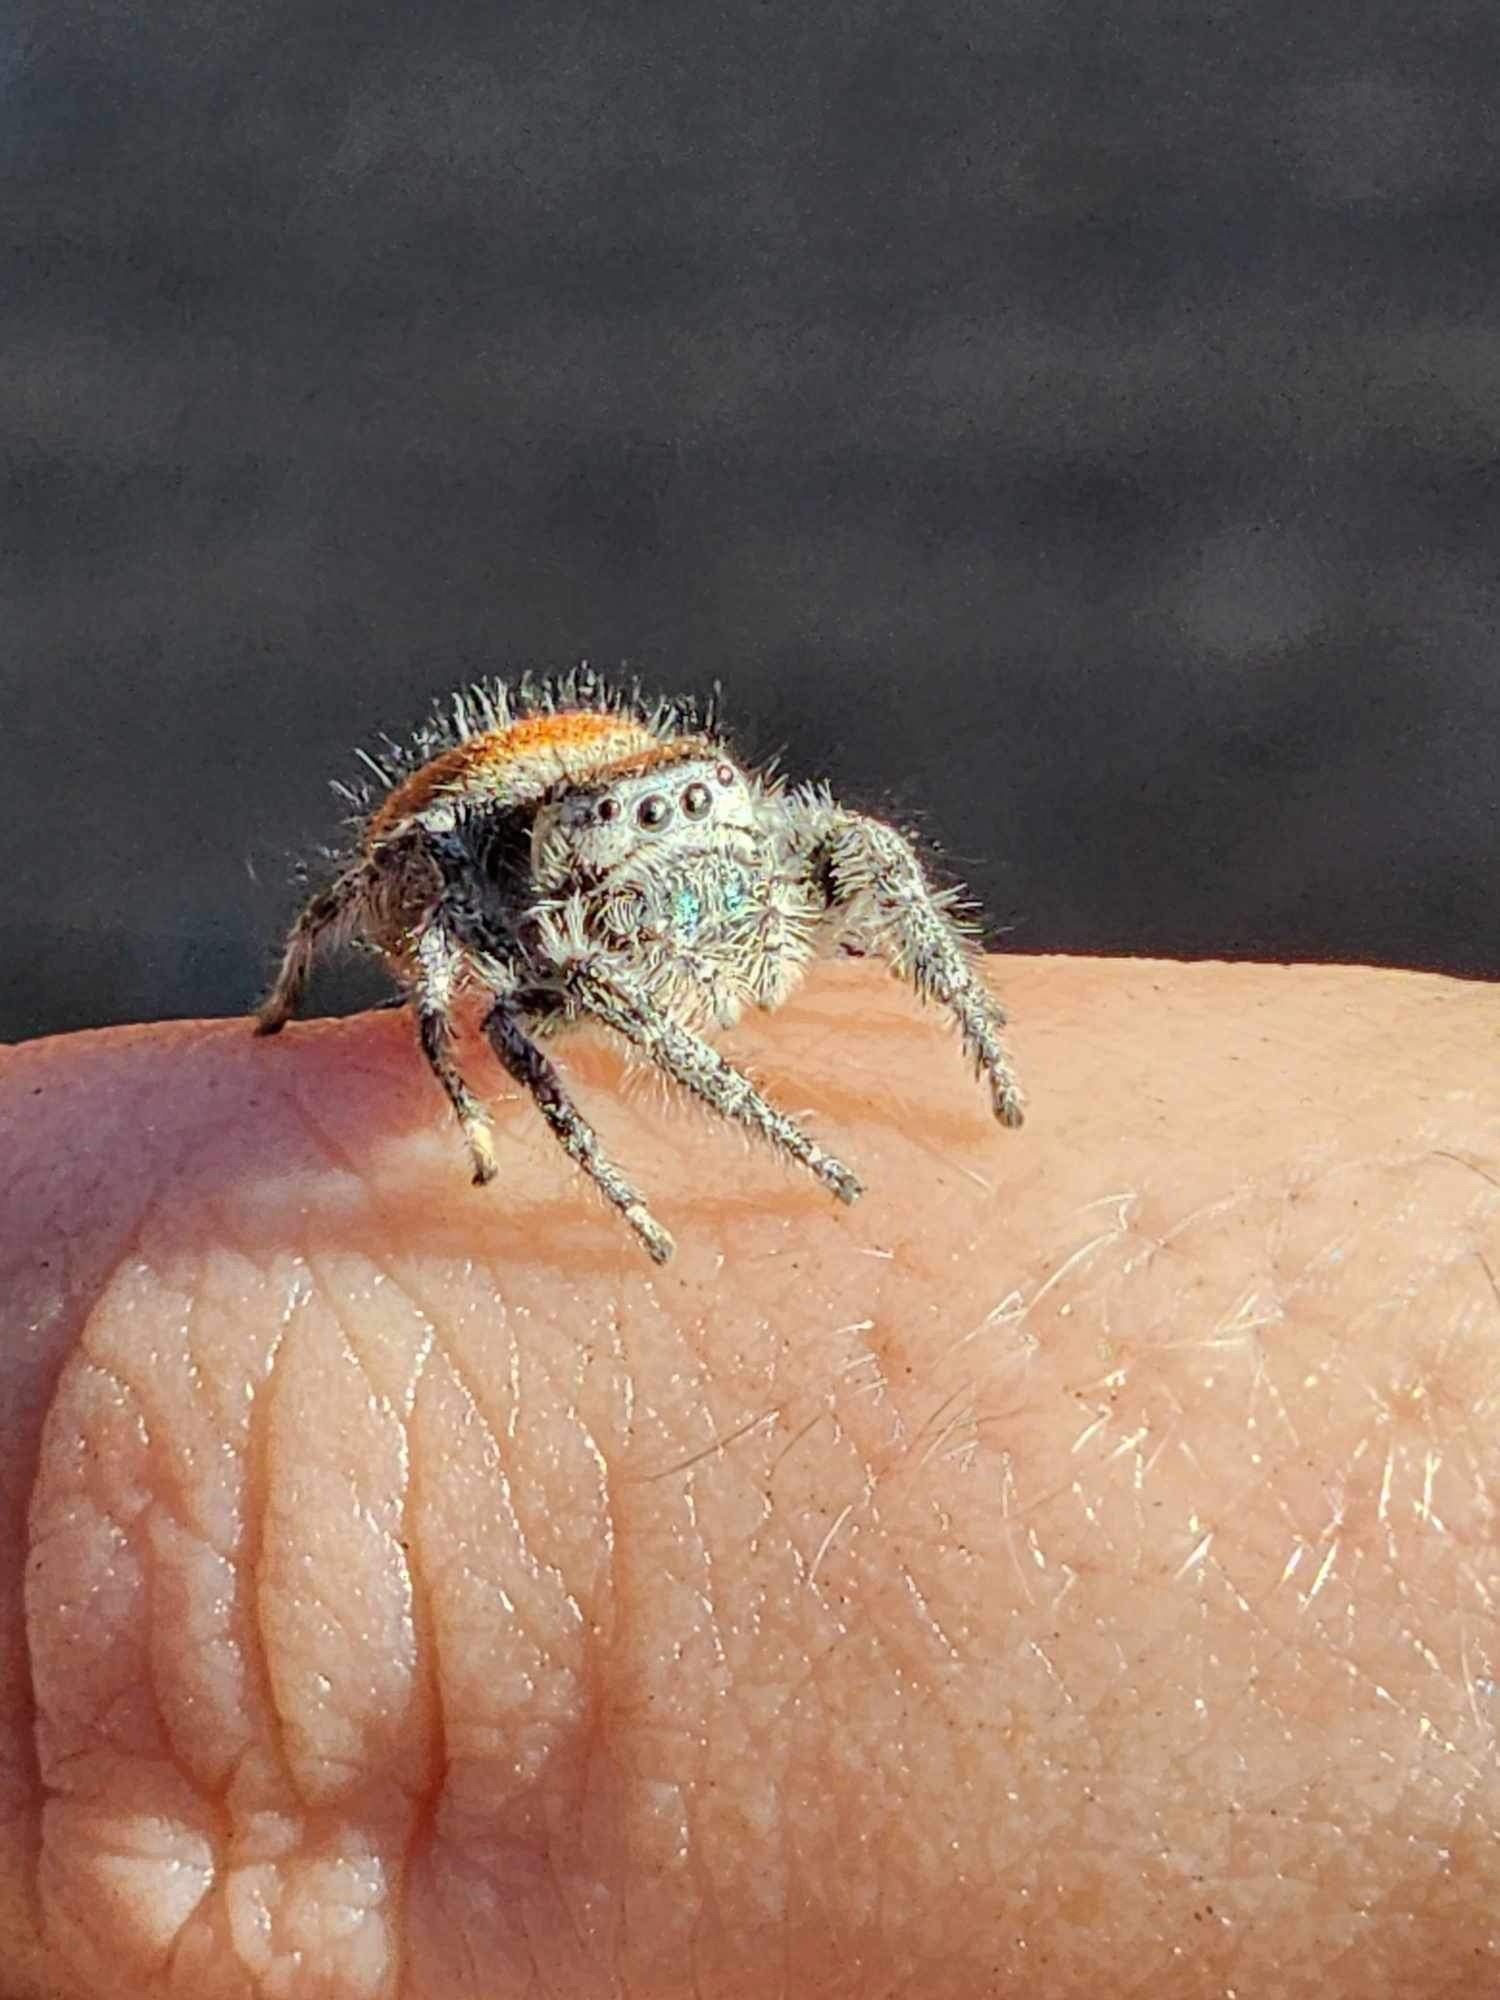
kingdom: Animalia
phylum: Arthropoda
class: Arachnida
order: Araneae
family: Salticidae
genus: Phidippus
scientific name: Phidippus adumbratus
